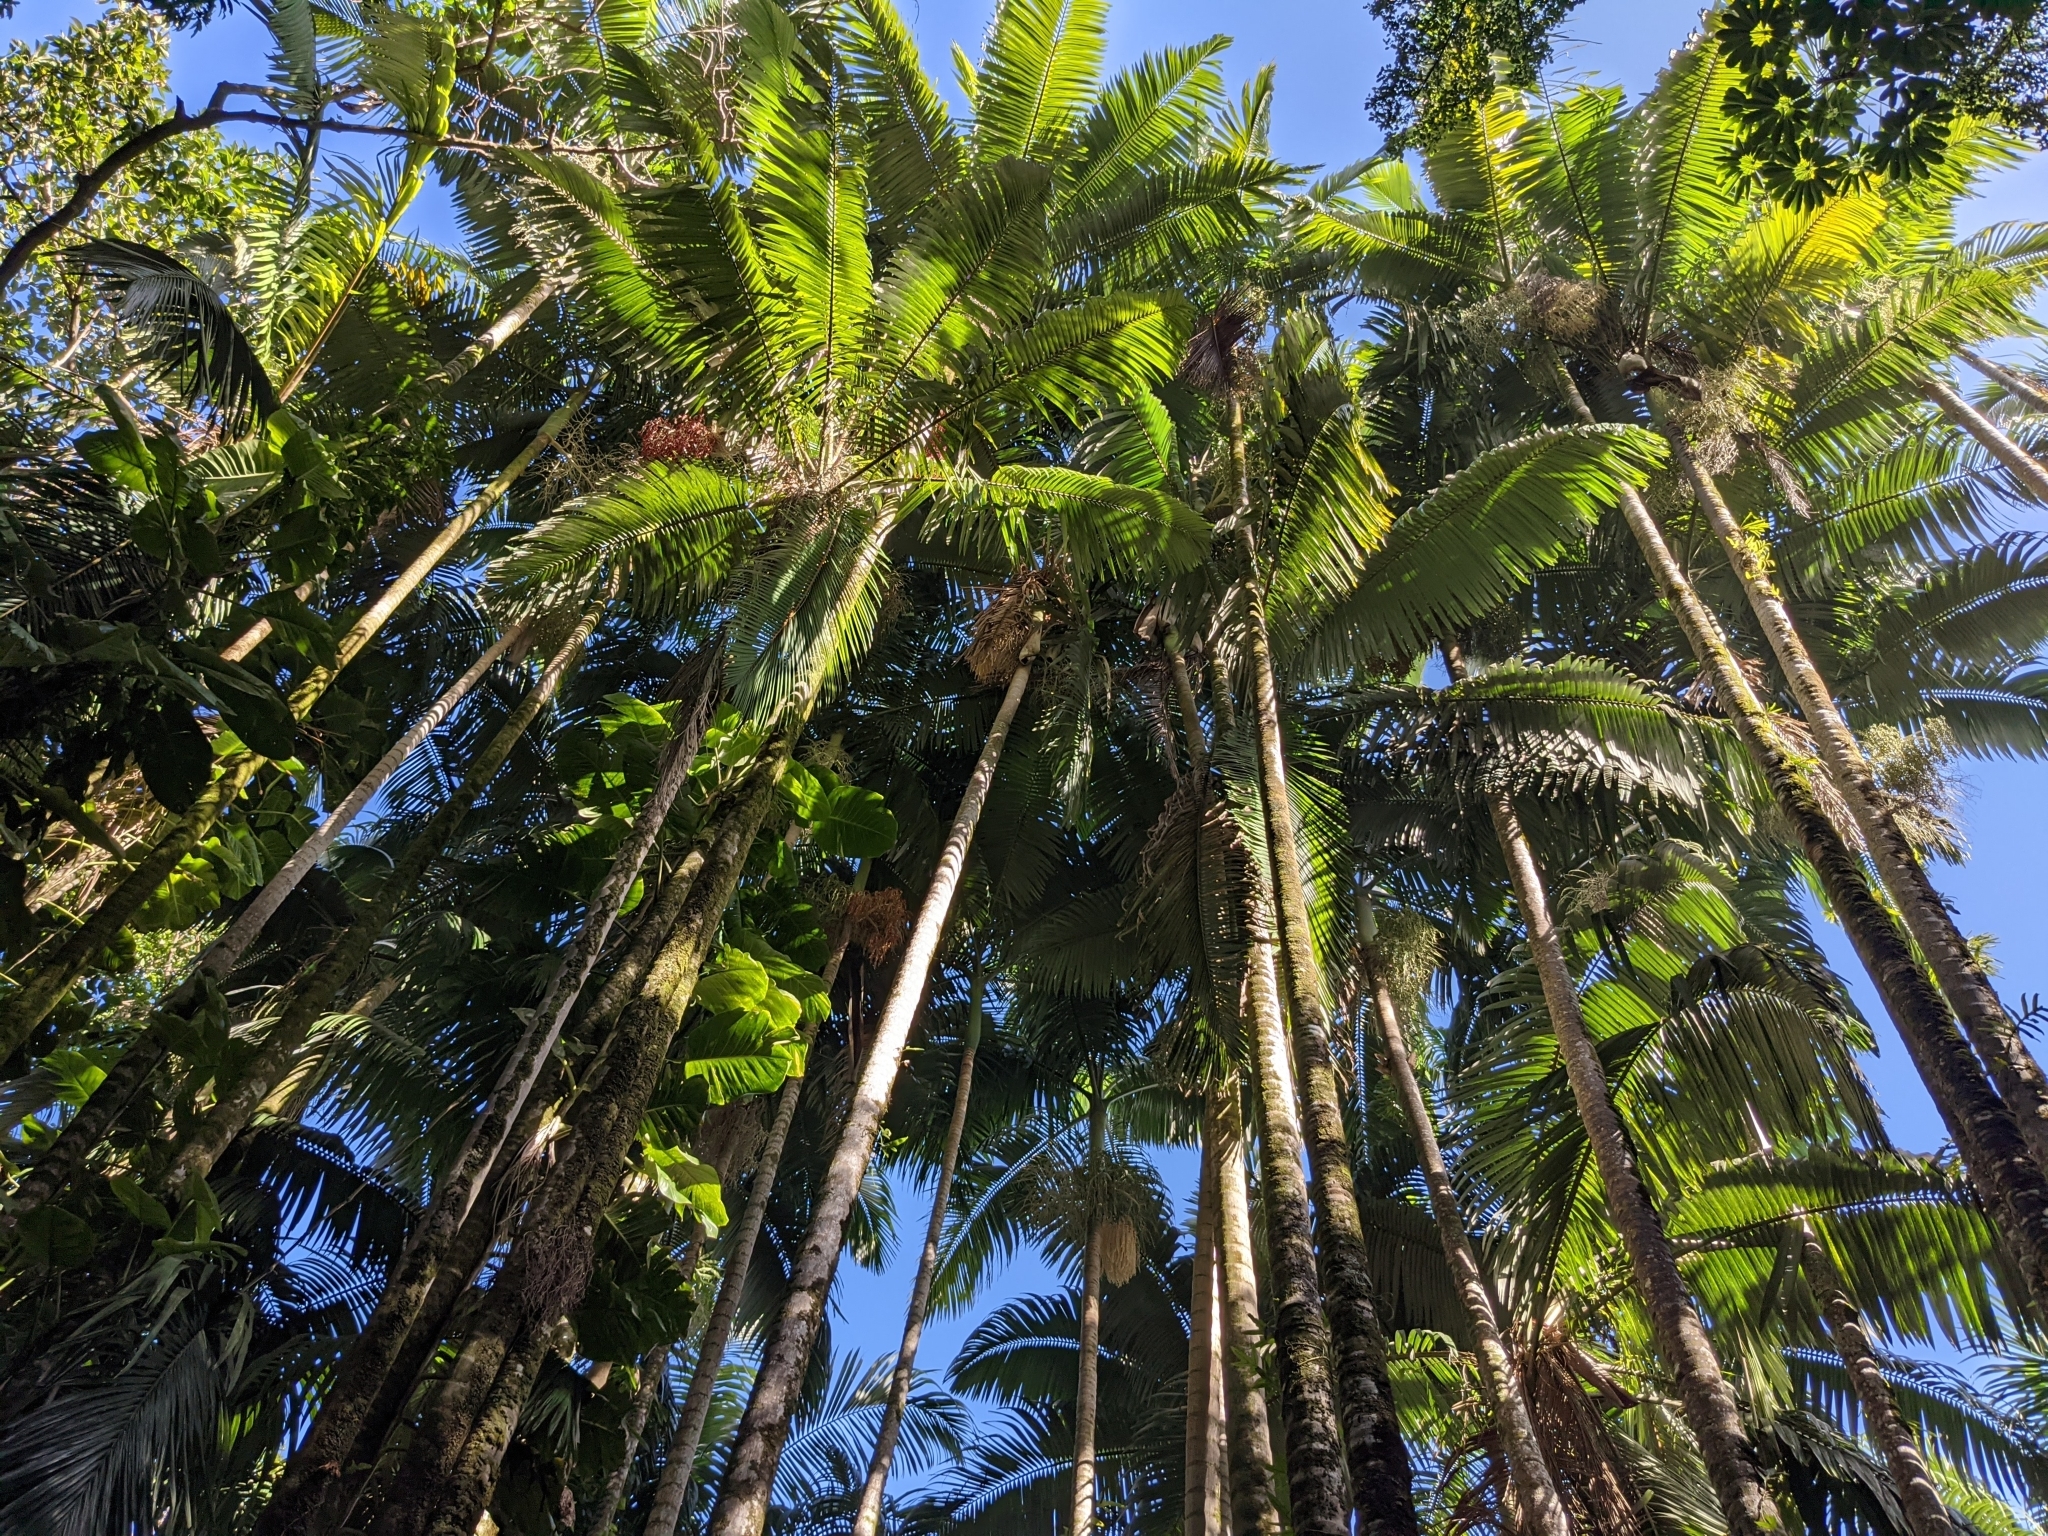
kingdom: Plantae
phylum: Tracheophyta
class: Liliopsida
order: Arecales
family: Arecaceae
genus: Archontophoenix
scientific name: Archontophoenix alexandrae
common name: Alexandra palm
